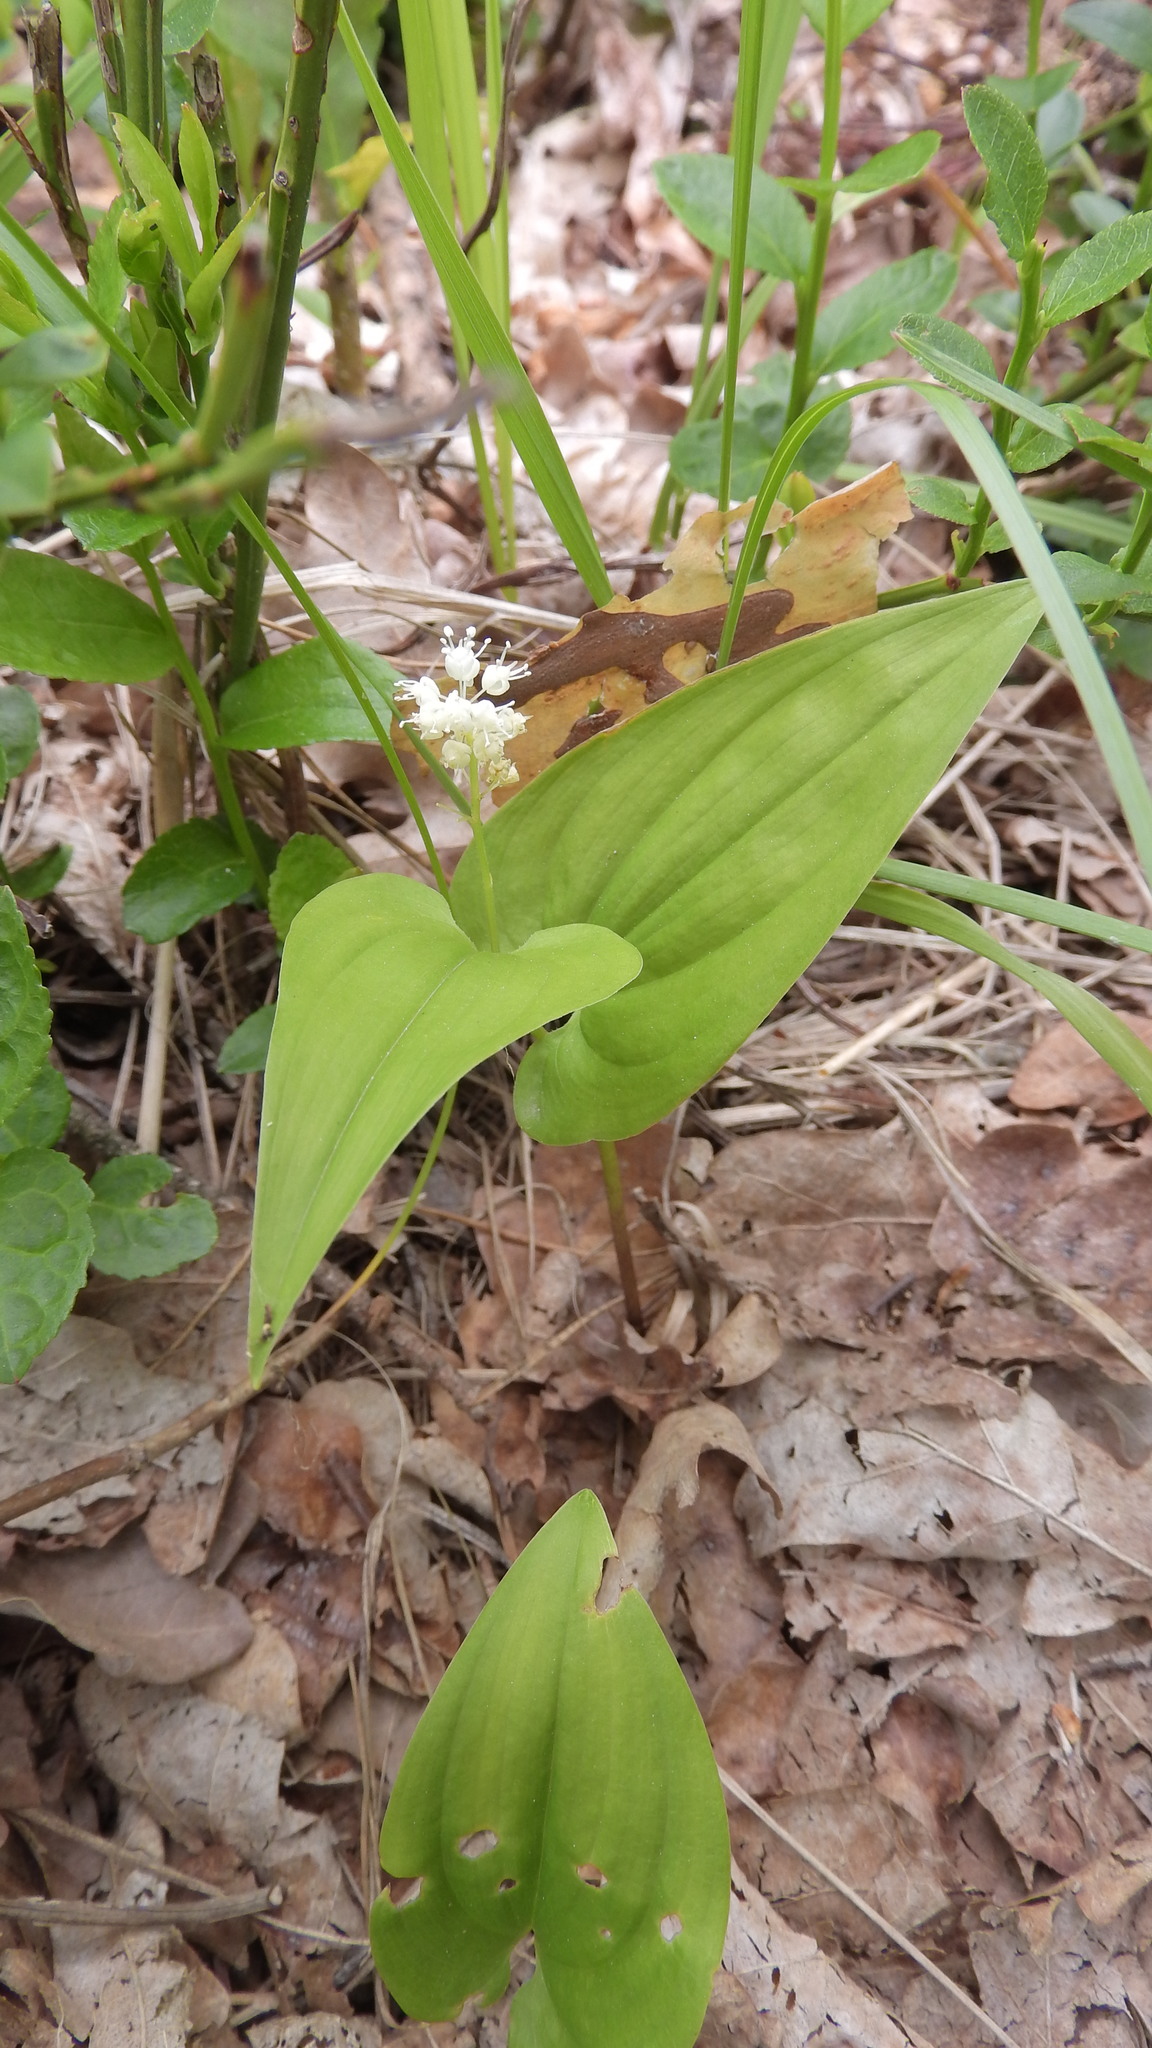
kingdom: Plantae
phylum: Tracheophyta
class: Liliopsida
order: Asparagales
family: Asparagaceae
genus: Maianthemum
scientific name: Maianthemum bifolium
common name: May lily
